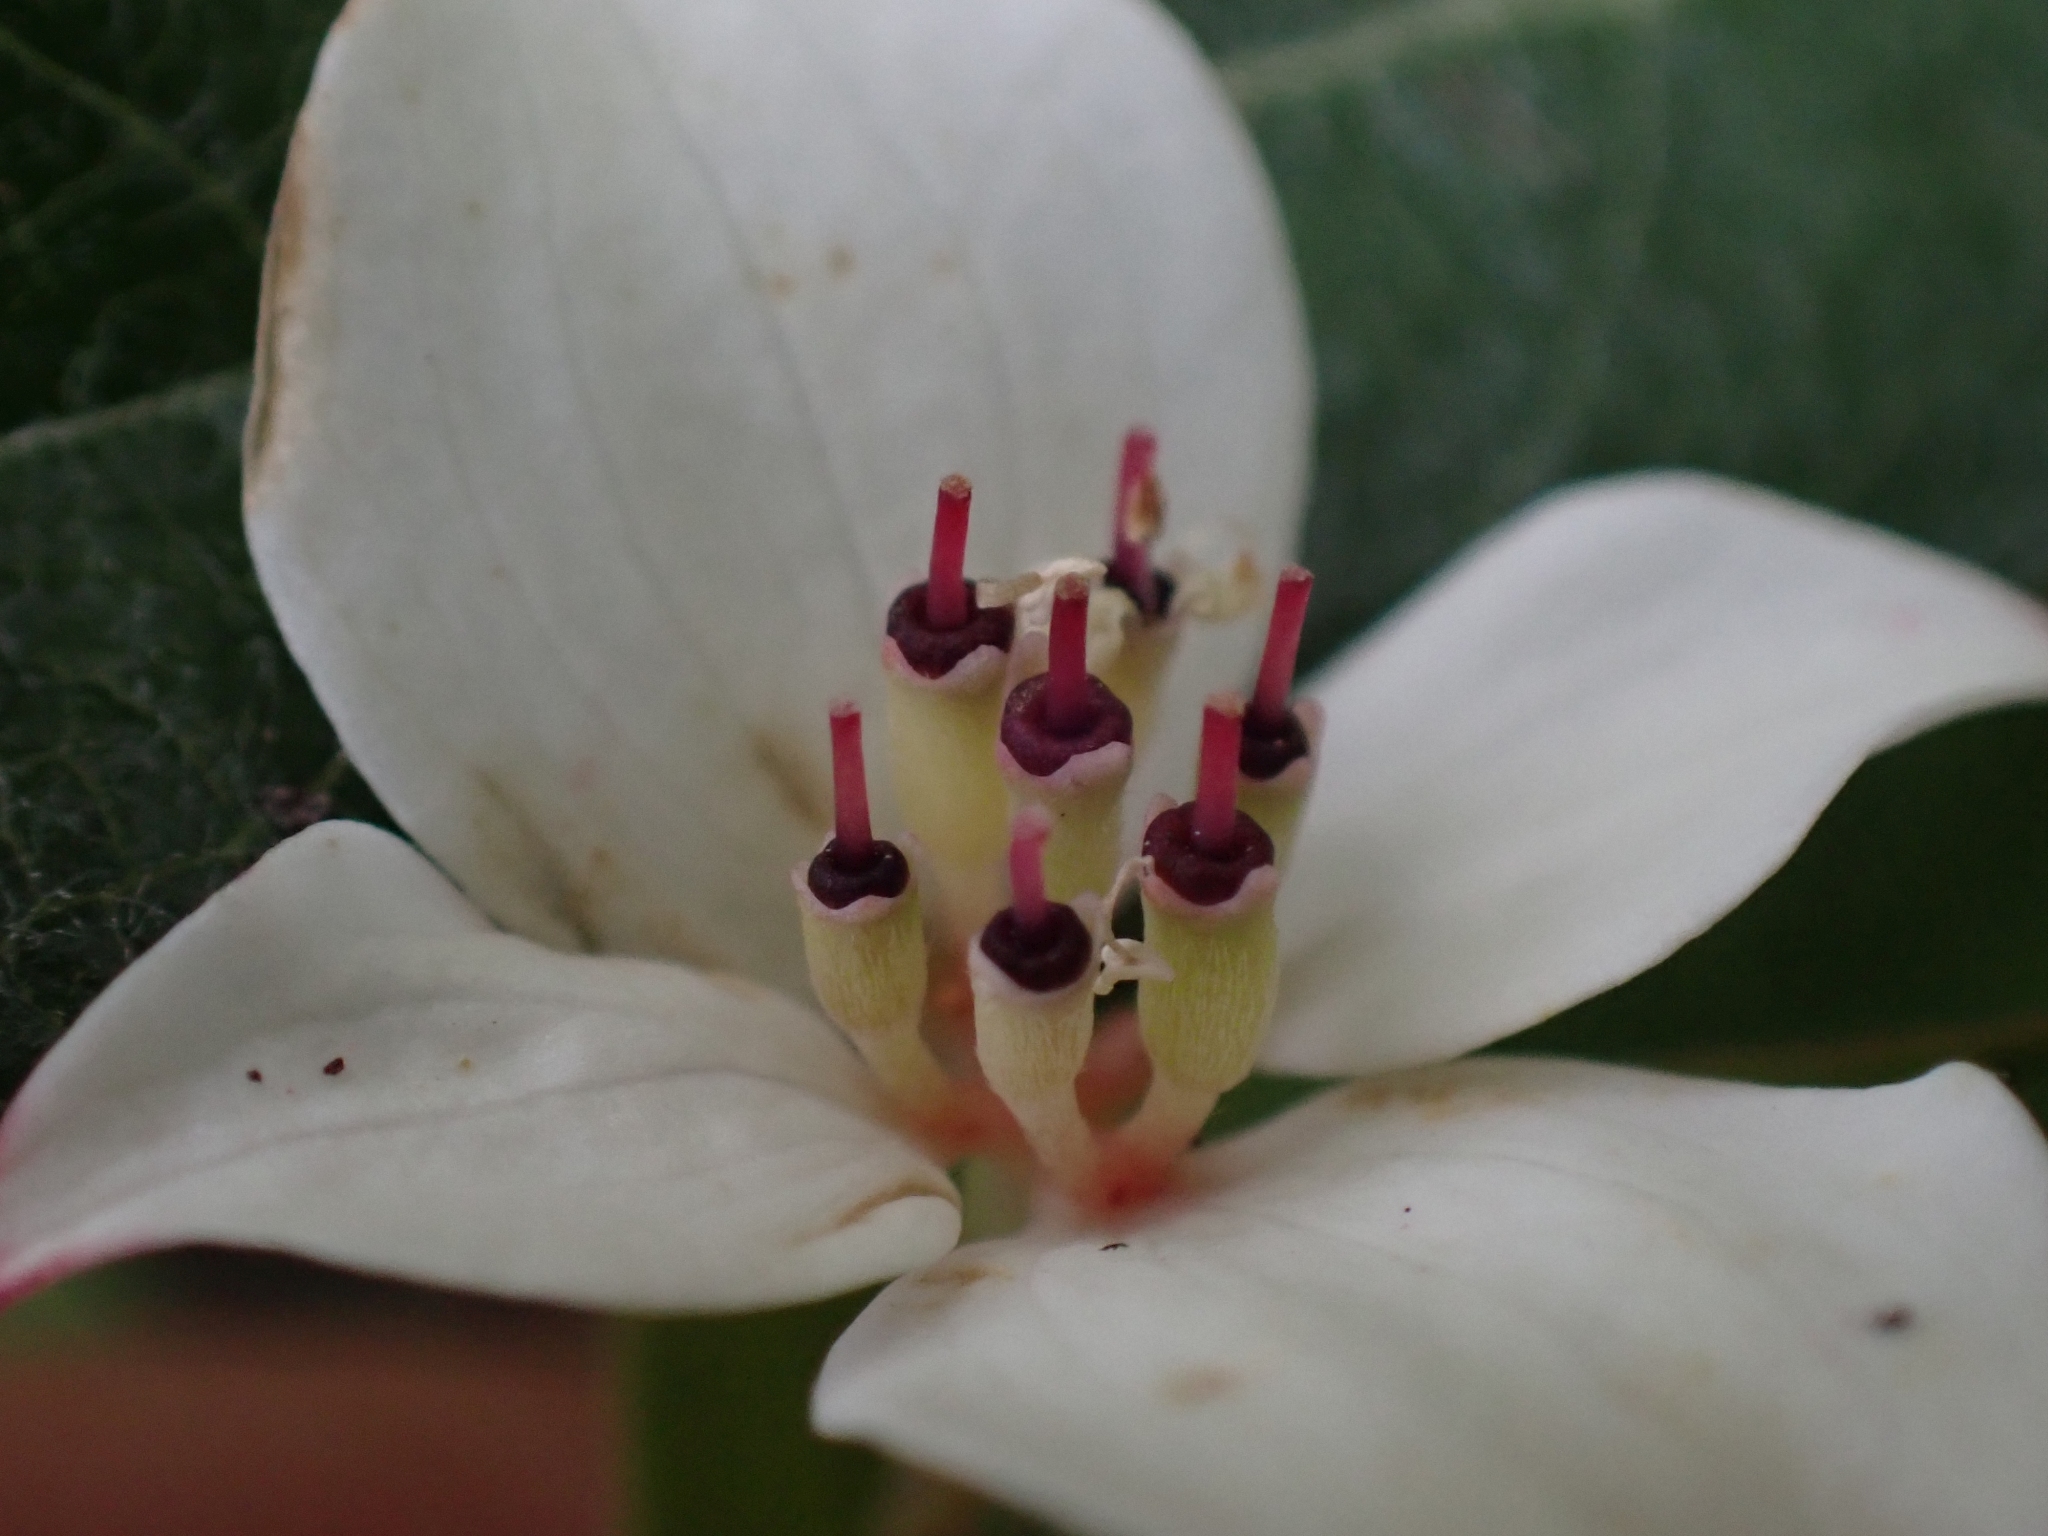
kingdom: Plantae
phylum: Tracheophyta
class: Magnoliopsida
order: Cornales
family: Cornaceae
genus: Cornus
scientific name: Cornus canadensis
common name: Creeping dogwood
